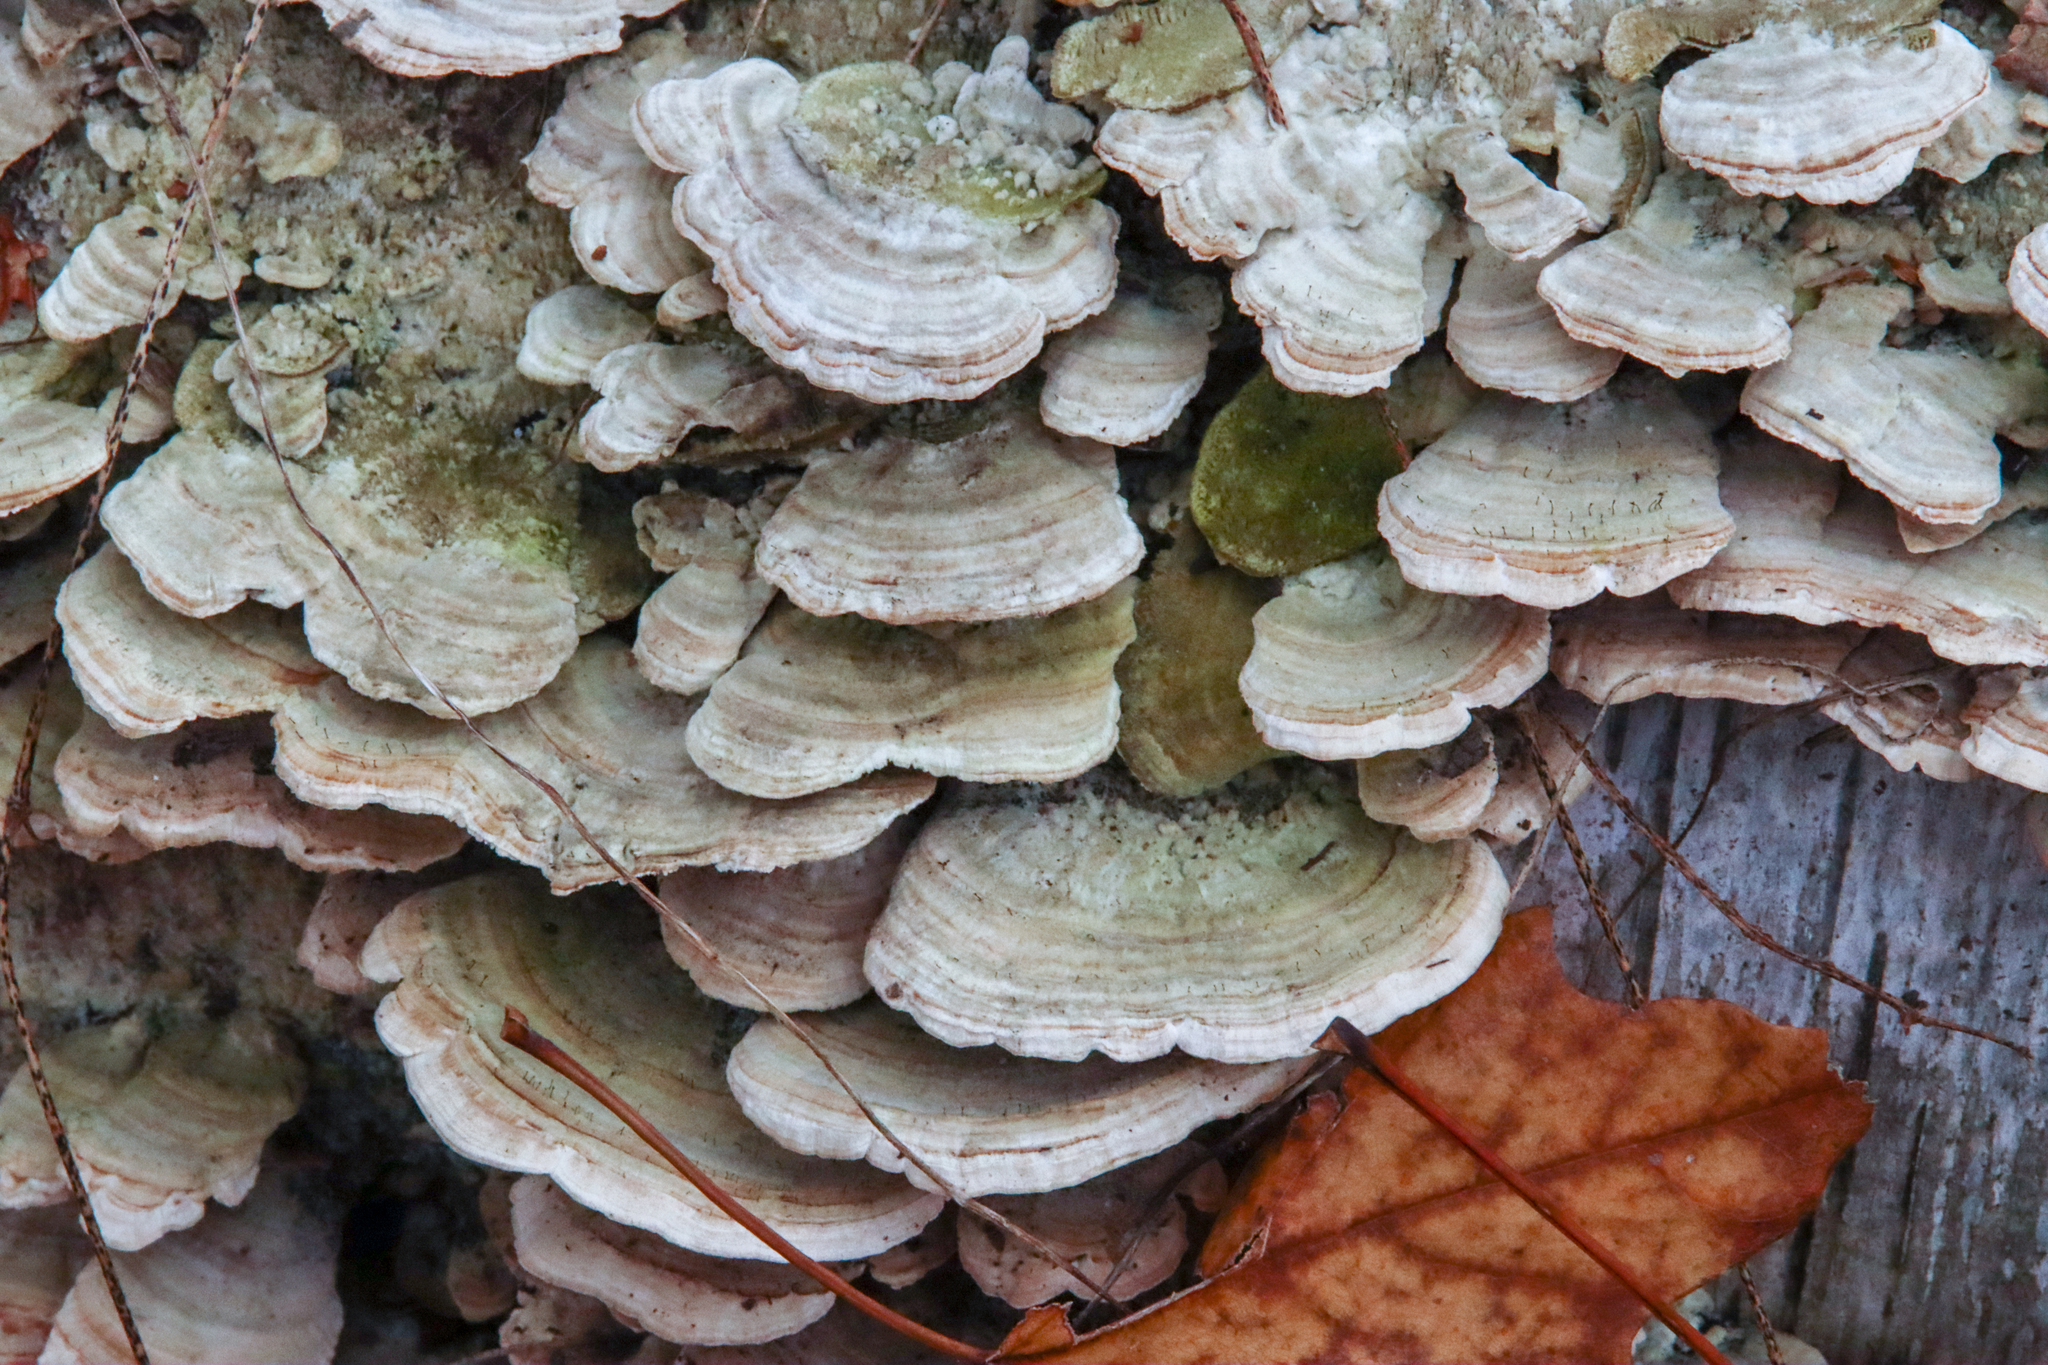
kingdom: Fungi
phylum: Basidiomycota
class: Agaricomycetes
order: Hymenochaetales
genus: Trichaptum
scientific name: Trichaptum biforme
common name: Violet-toothed polypore
